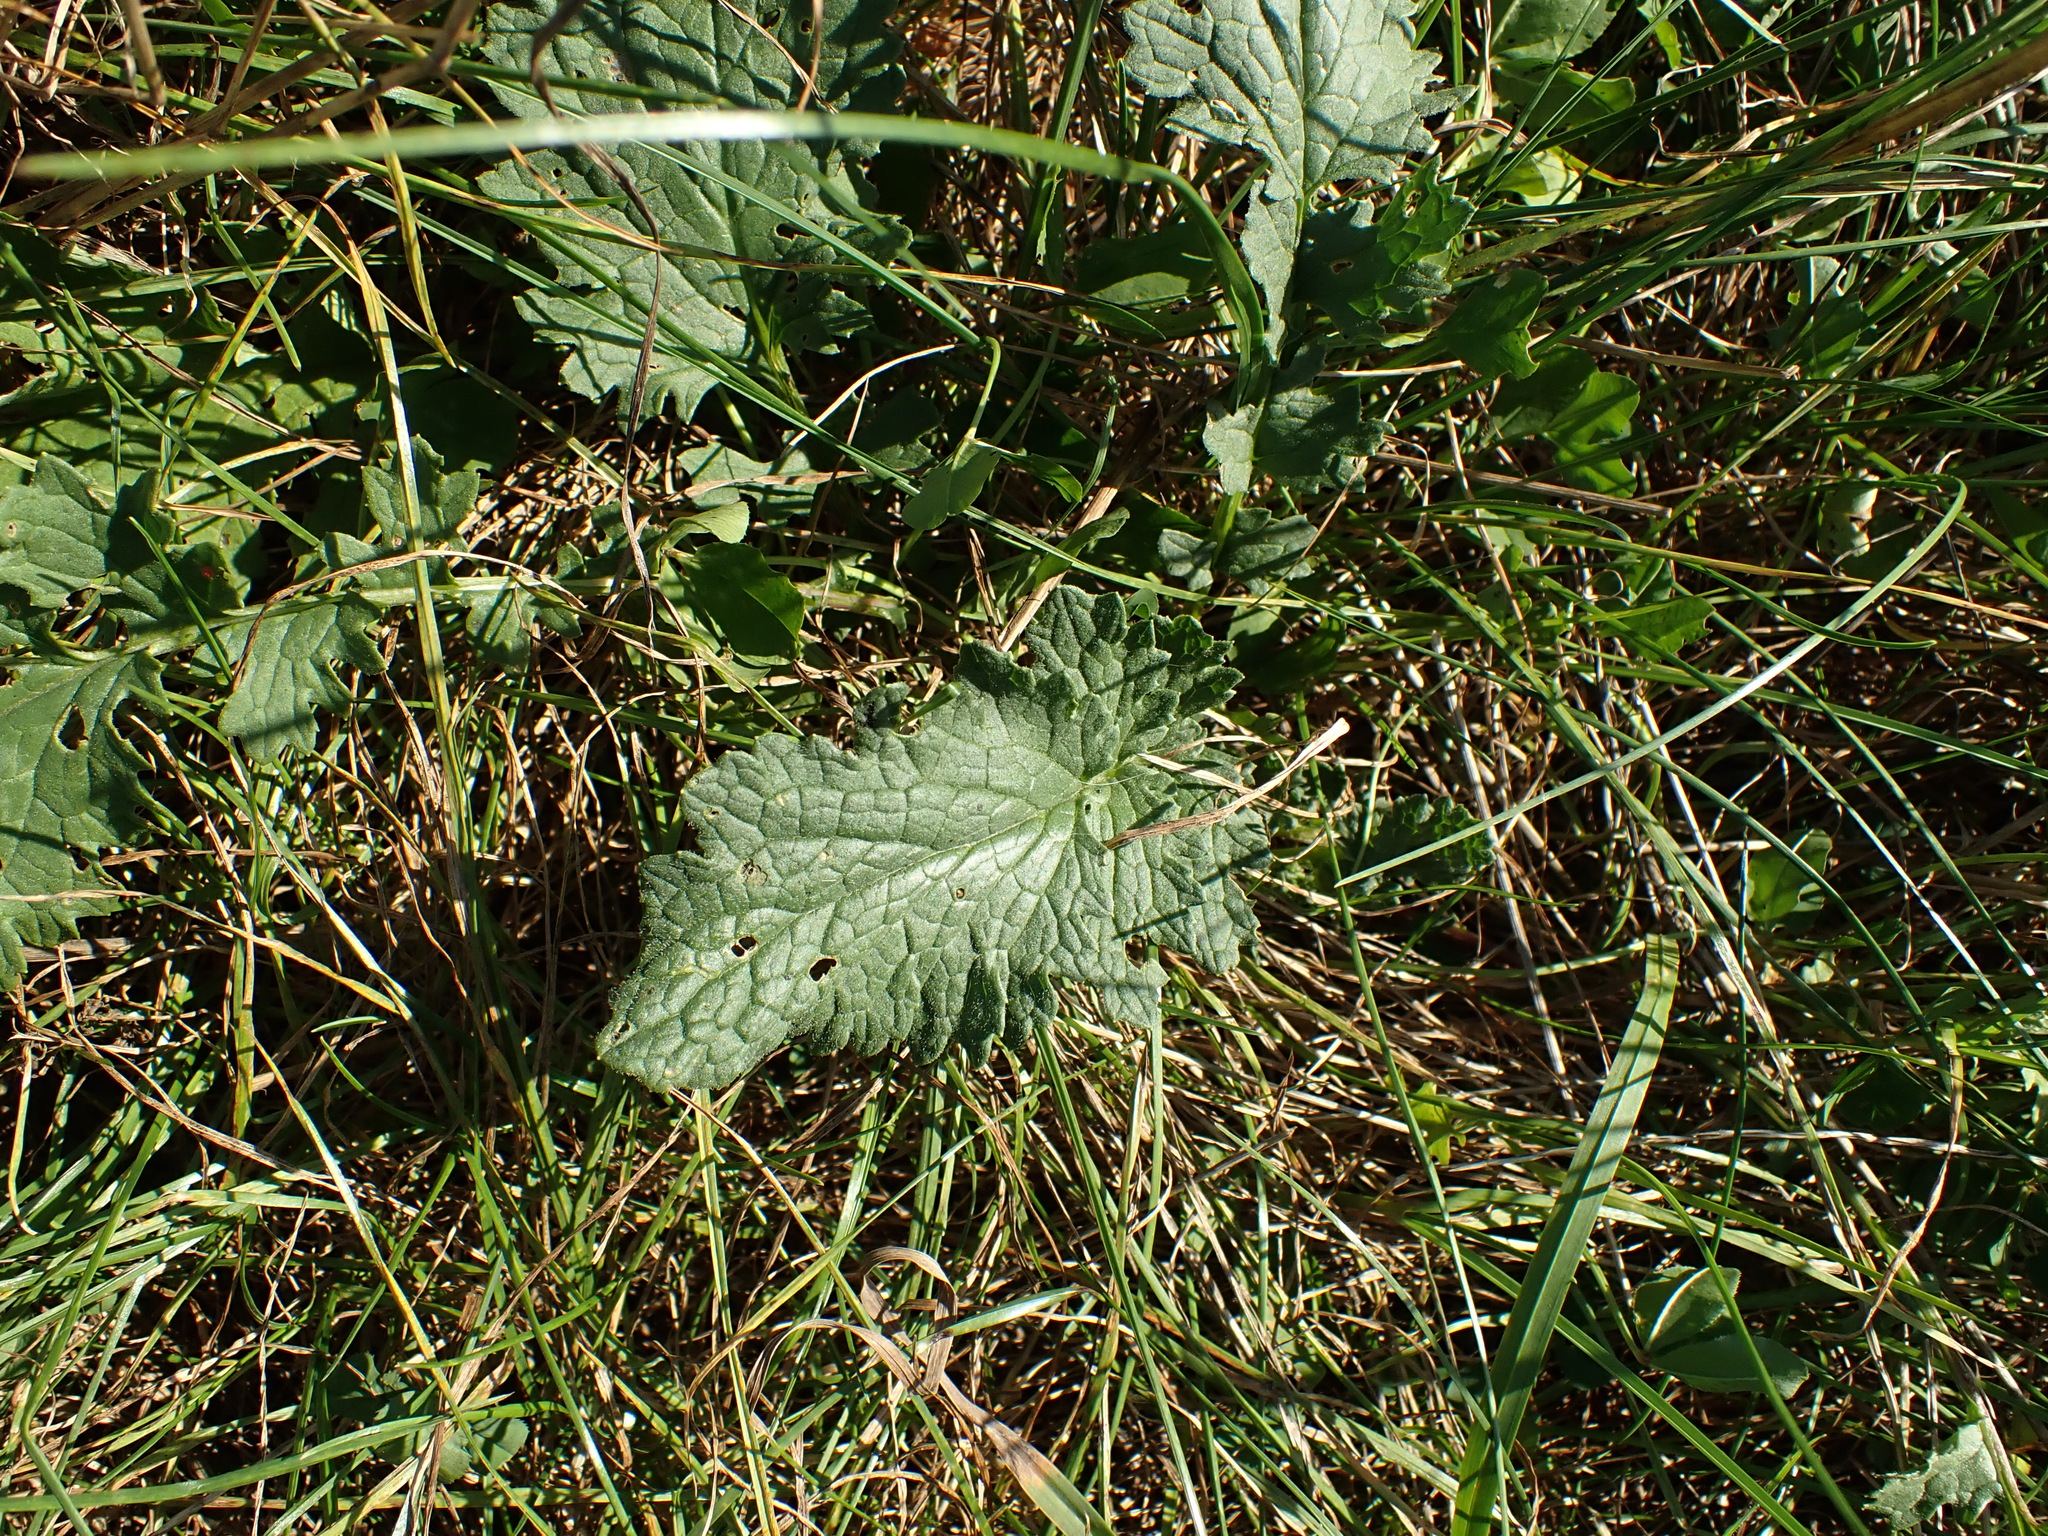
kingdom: Plantae
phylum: Tracheophyta
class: Magnoliopsida
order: Asterales
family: Asteraceae
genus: Jacobaea
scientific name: Jacobaea vulgaris
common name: Stinking willie
